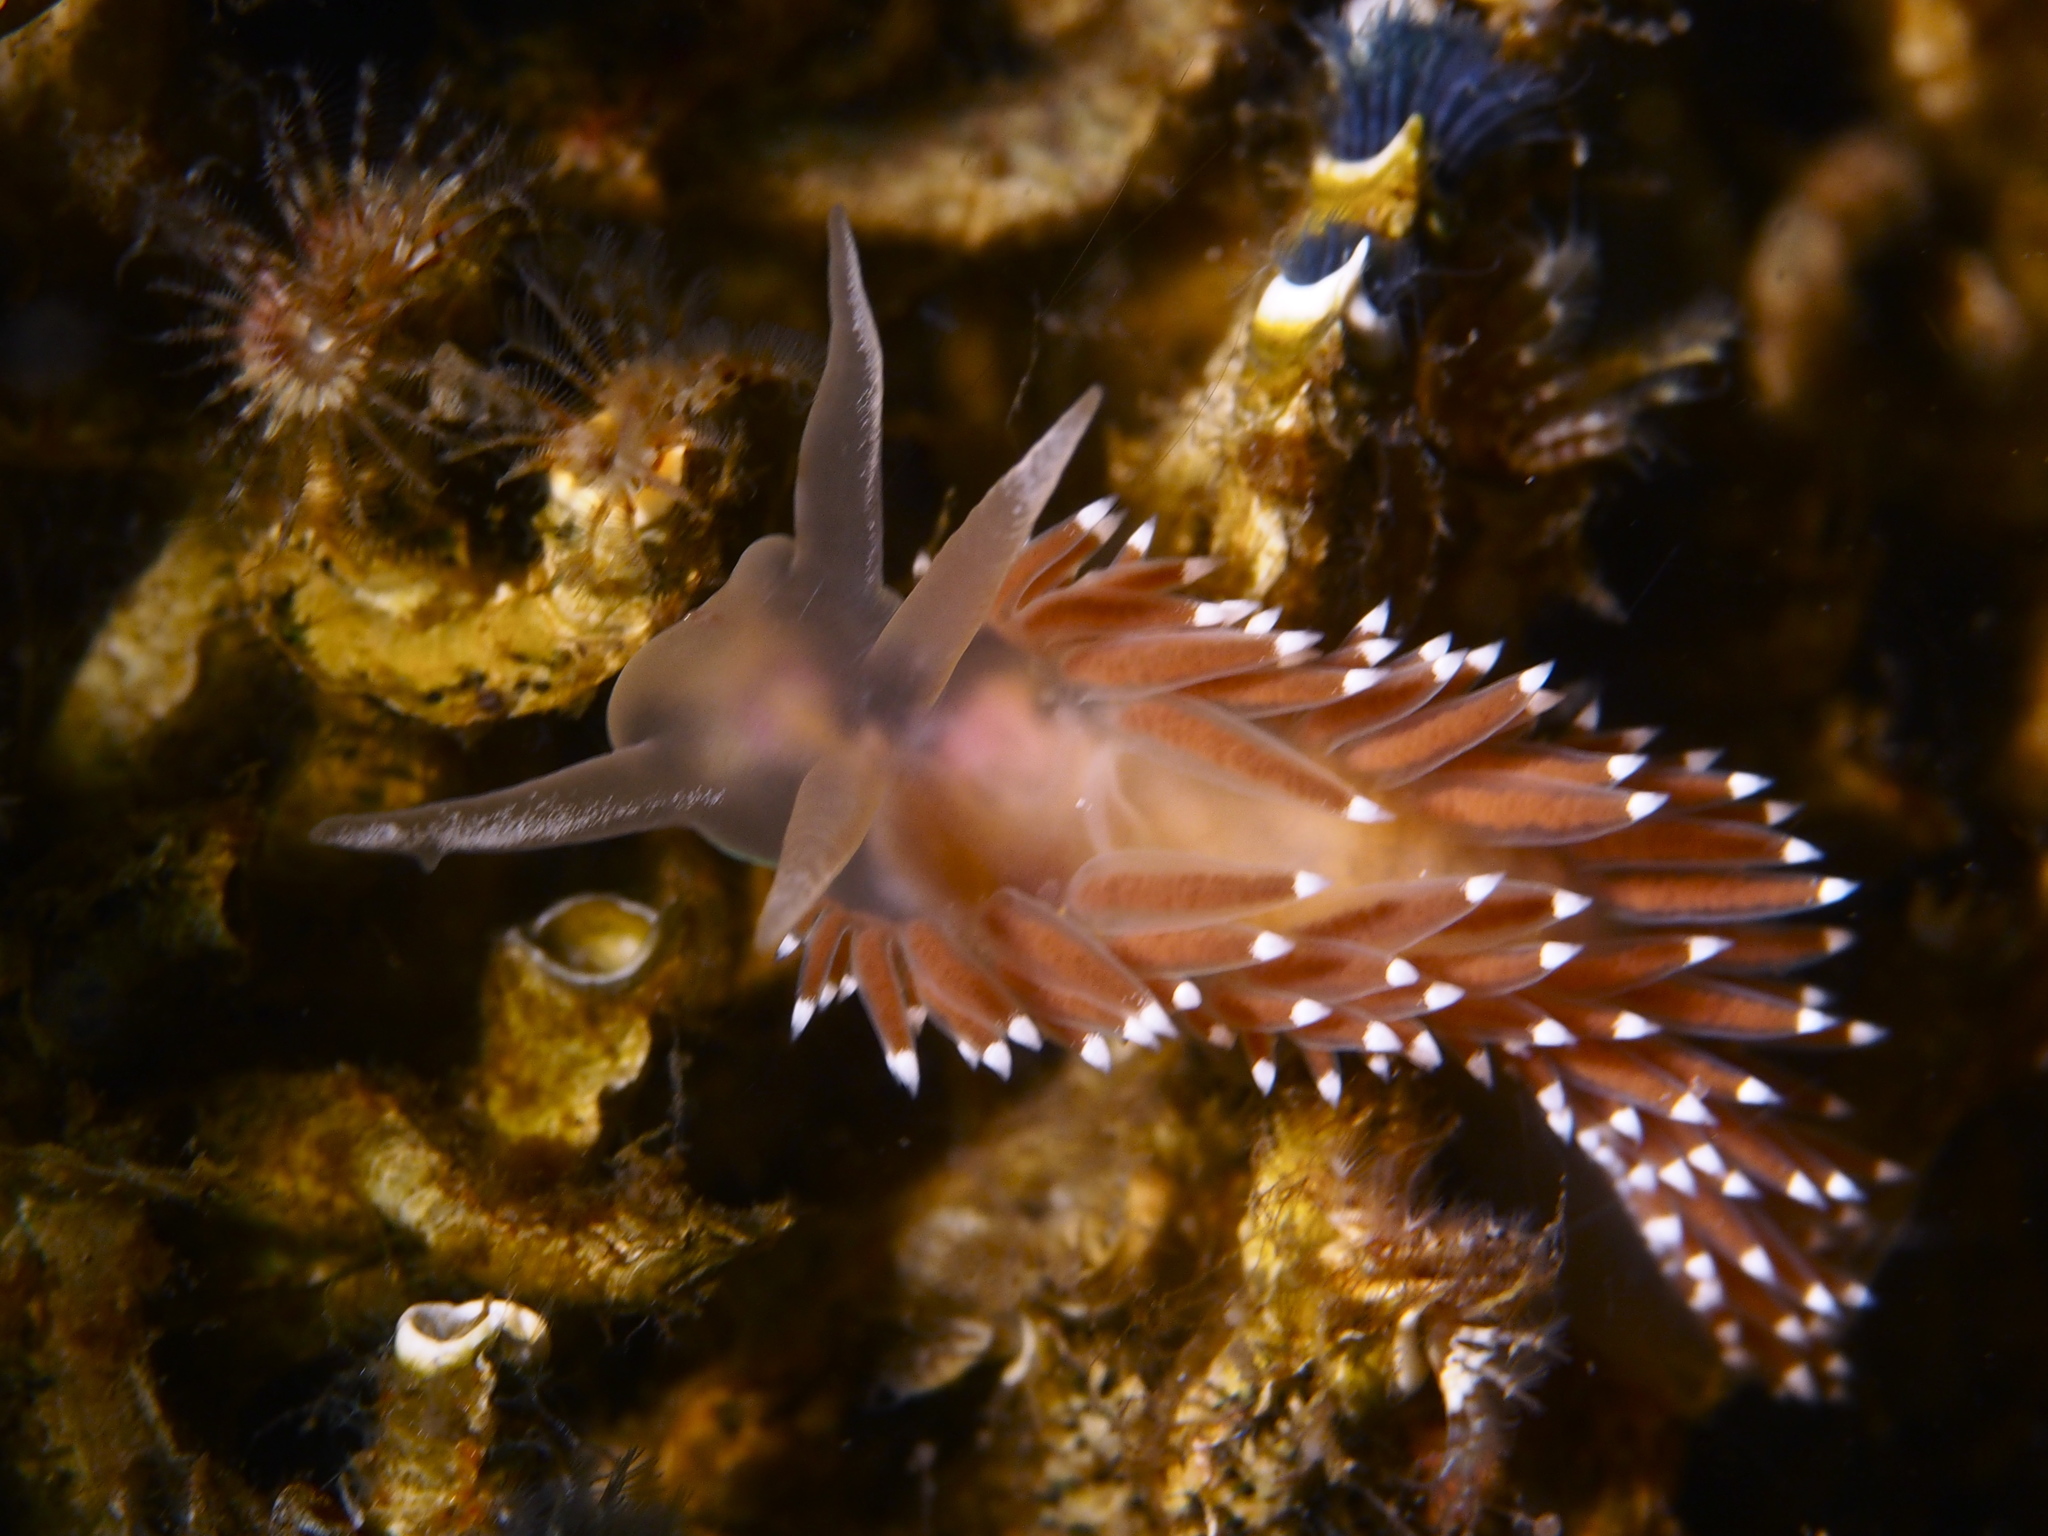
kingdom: Animalia
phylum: Mollusca
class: Gastropoda
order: Nudibranchia
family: Coryphellidae
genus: Coryphella
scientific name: Coryphella verrucosa
